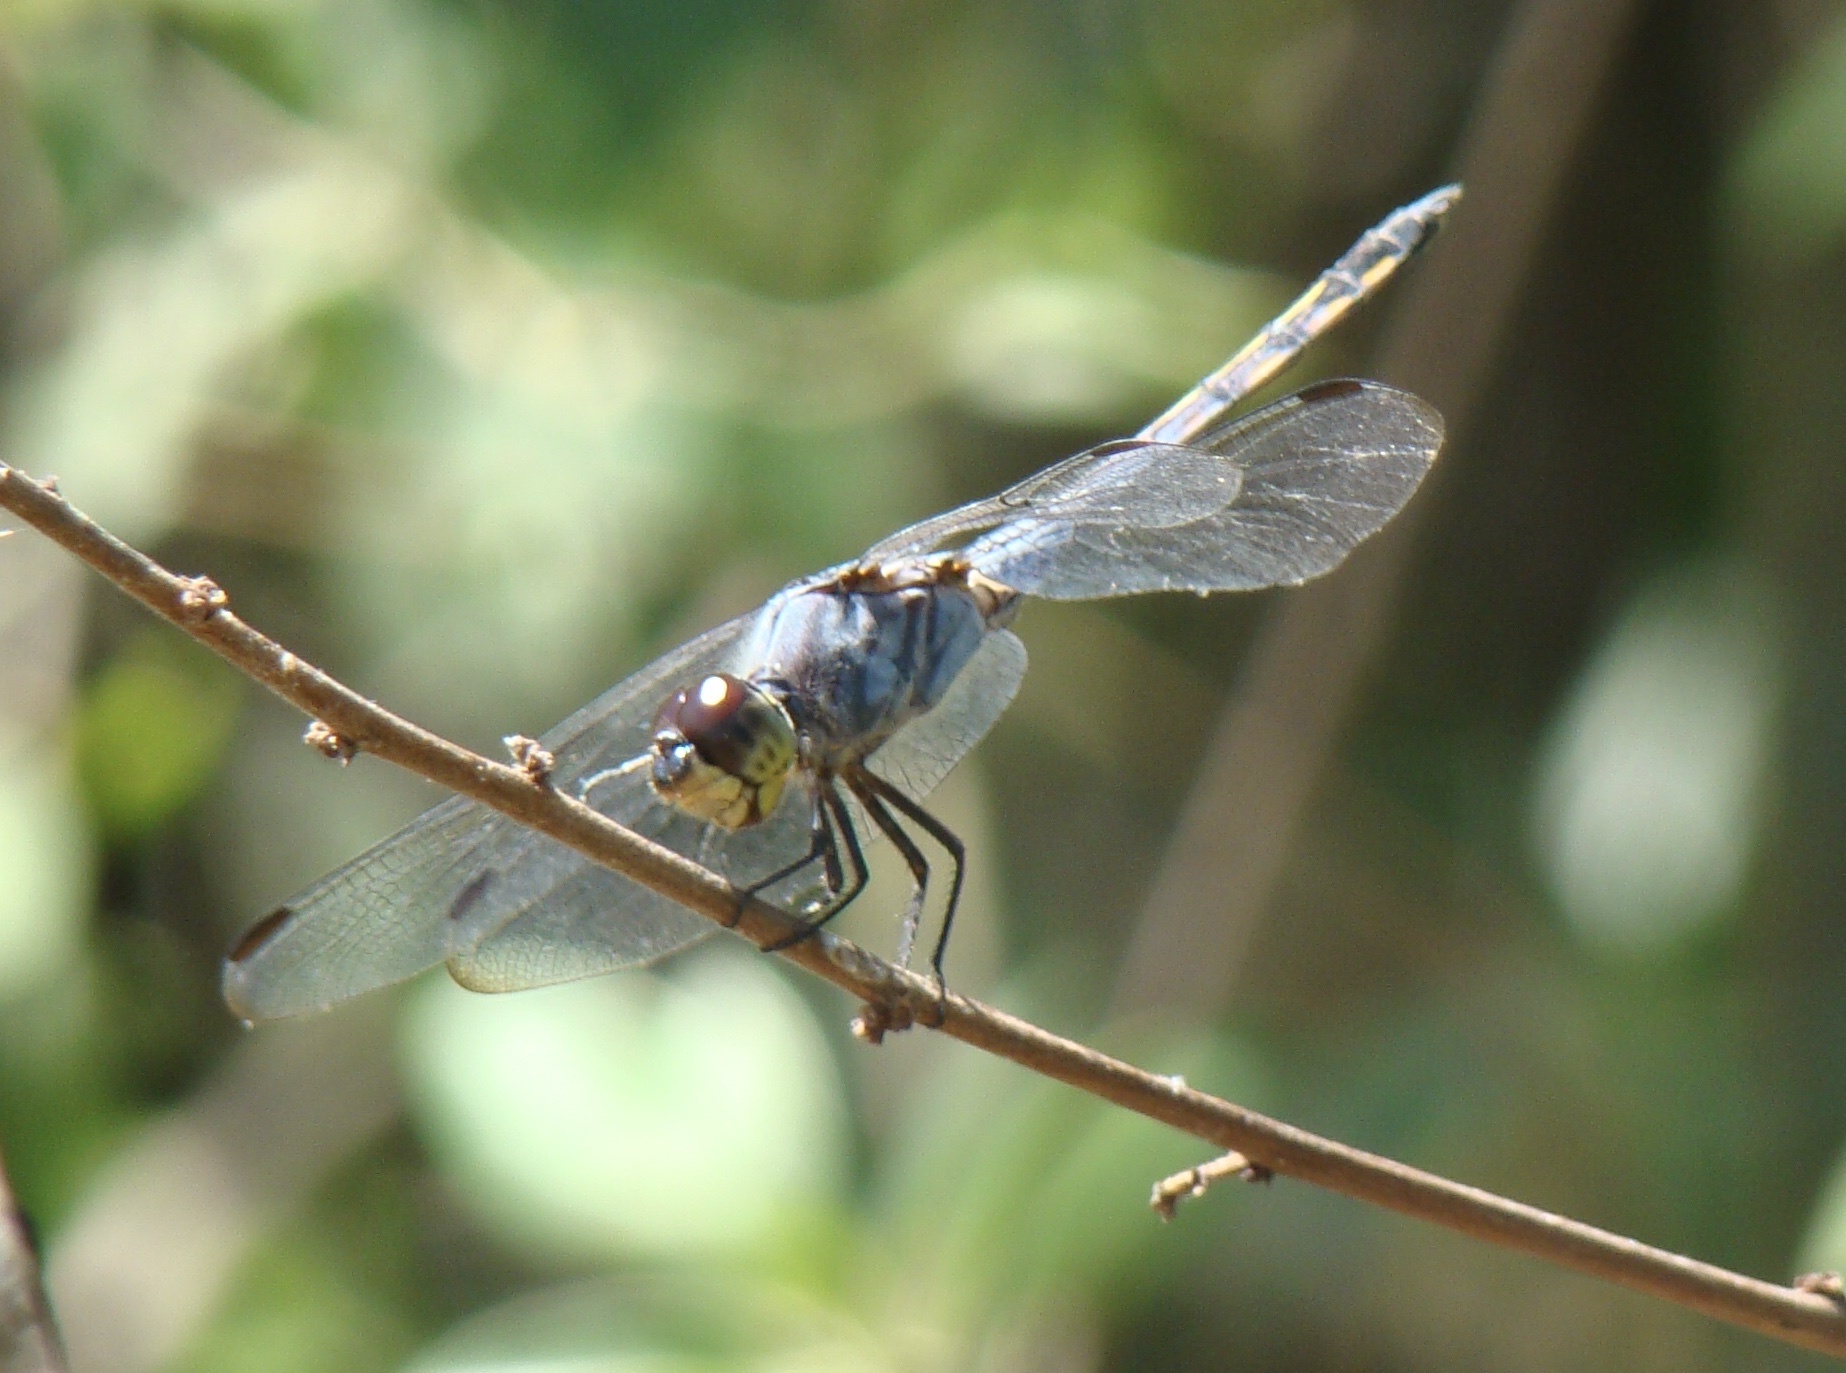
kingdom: Animalia
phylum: Arthropoda
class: Insecta
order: Odonata
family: Libellulidae
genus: Potamarcha
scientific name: Potamarcha congener
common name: Blue chaser
